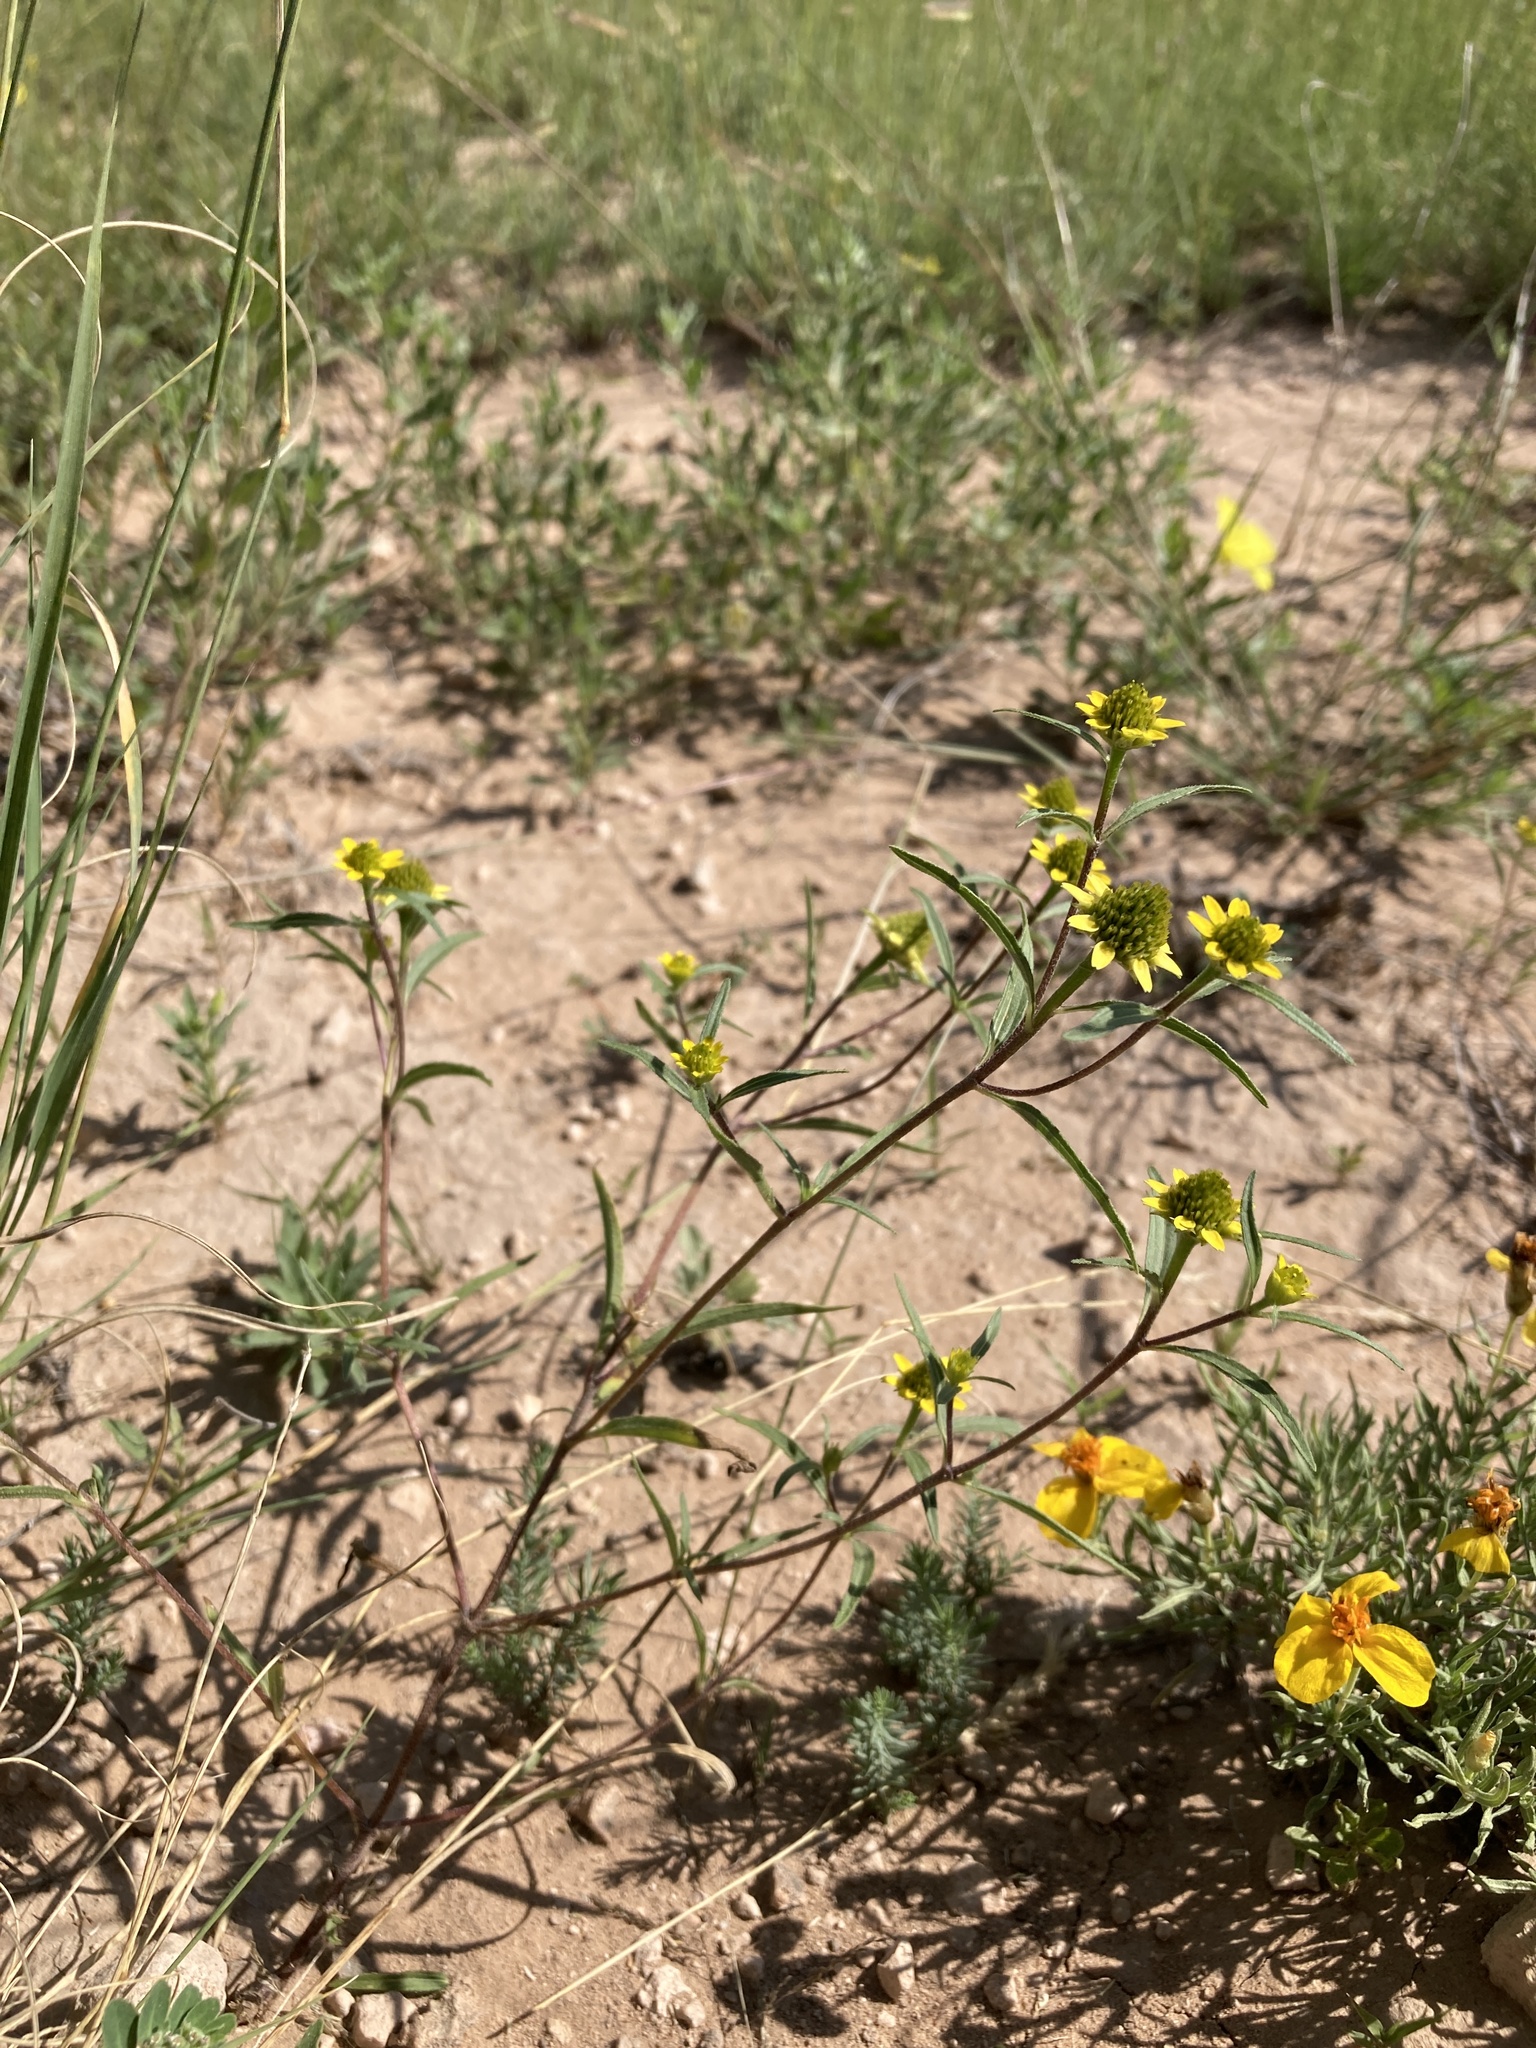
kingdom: Plantae
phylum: Tracheophyta
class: Magnoliopsida
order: Asterales
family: Asteraceae
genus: Sanvitalia
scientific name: Sanvitalia abertii
